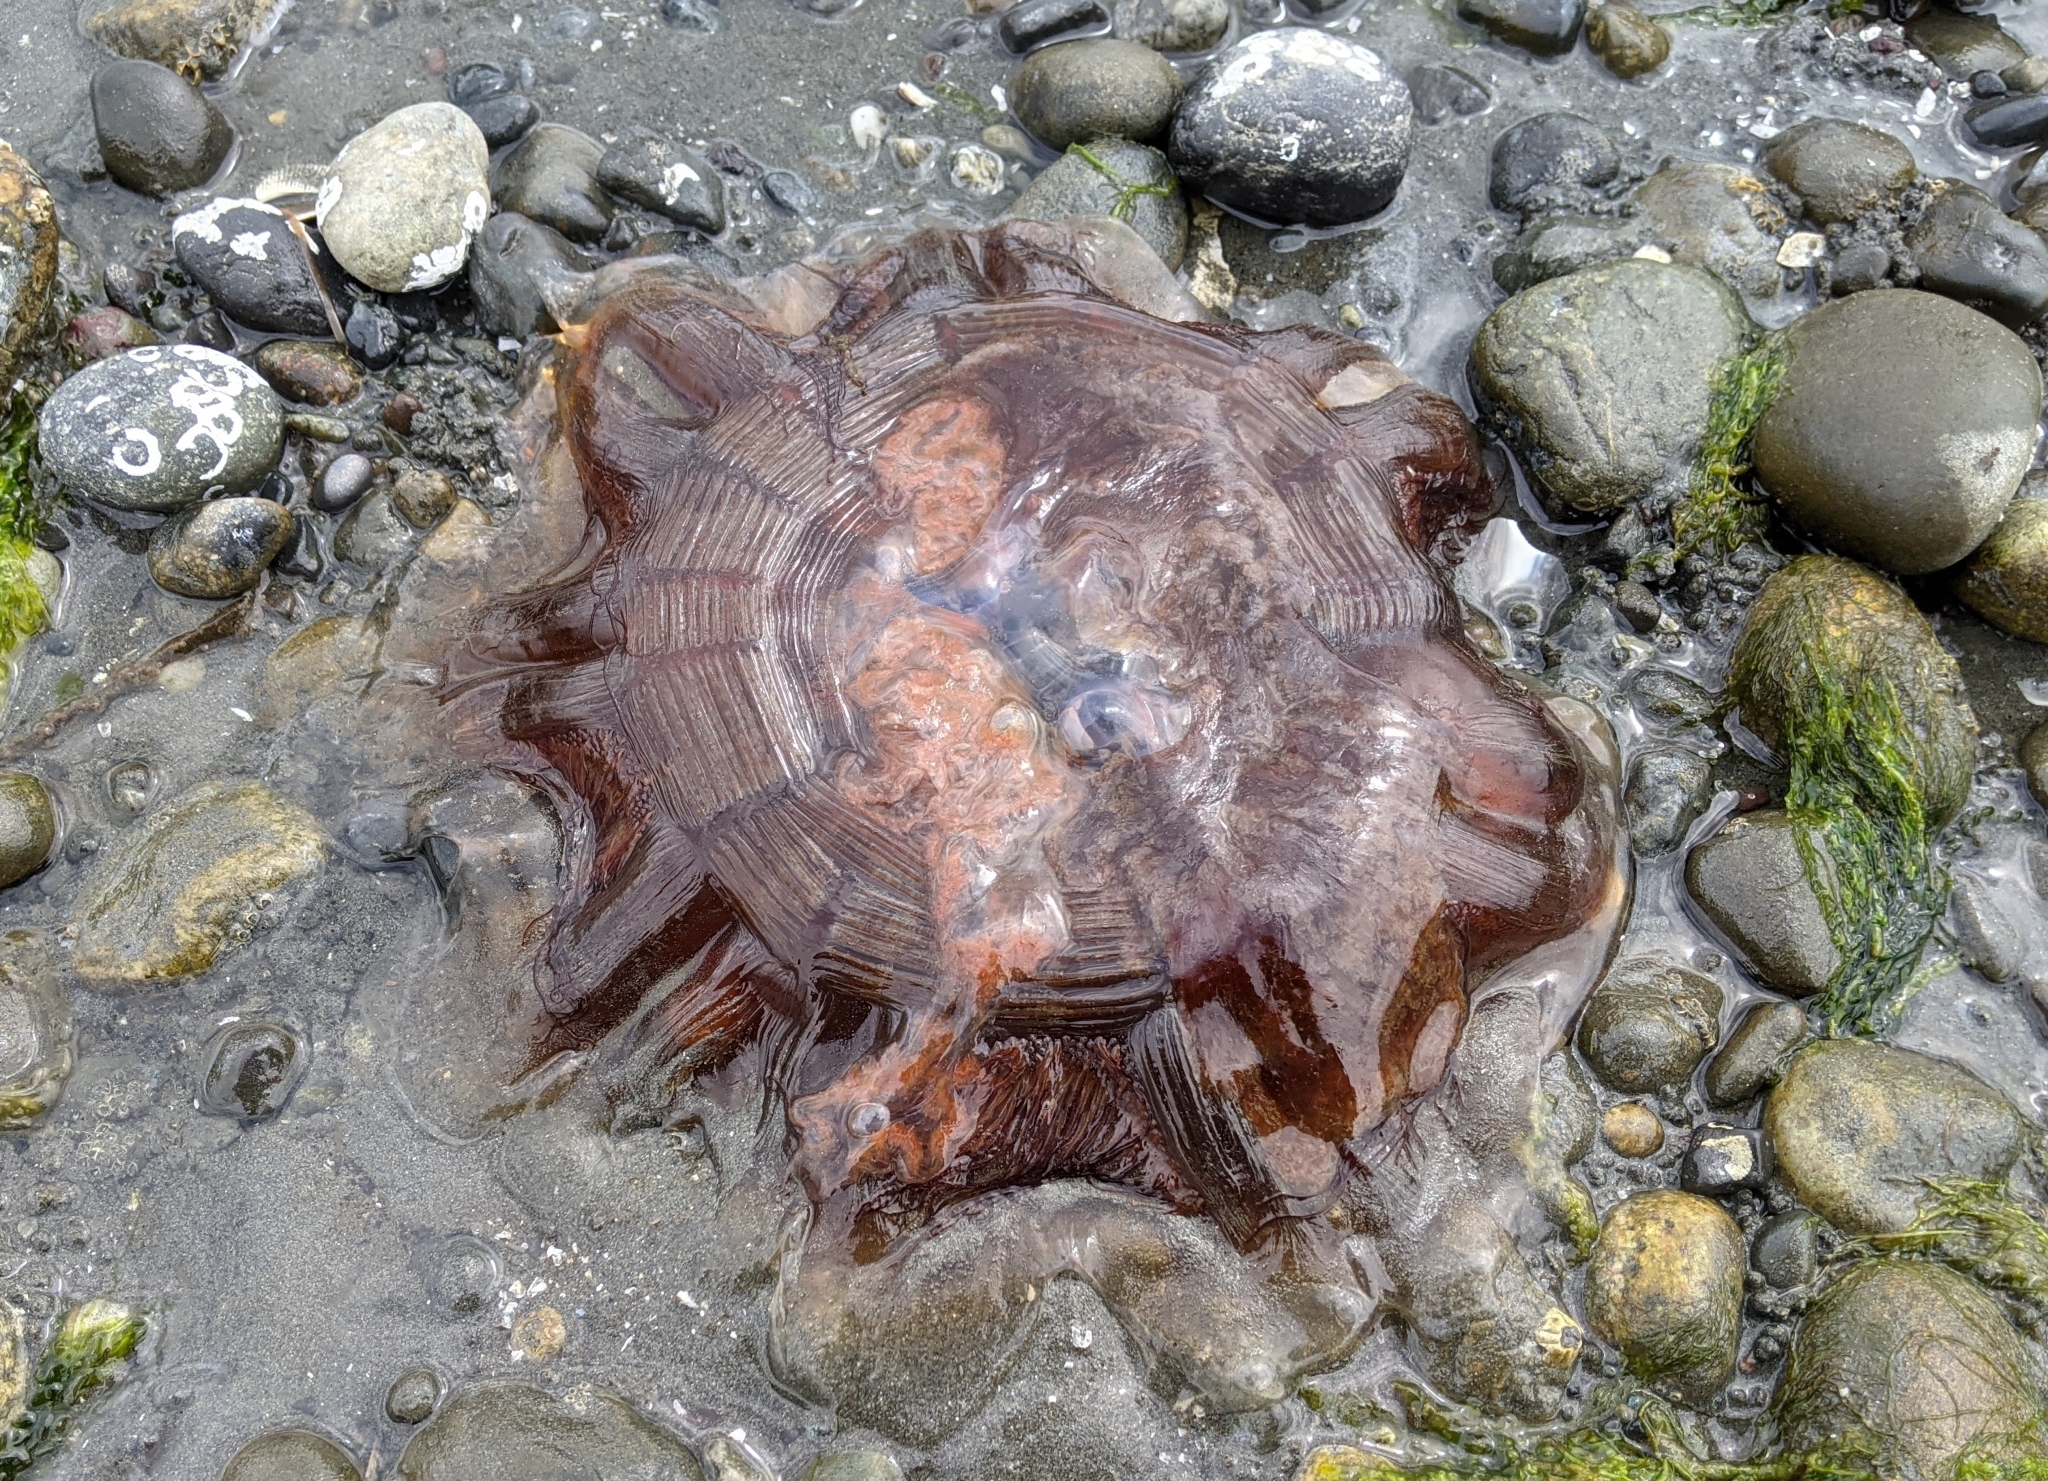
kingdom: Animalia
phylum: Cnidaria
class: Scyphozoa
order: Semaeostomeae
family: Cyaneidae
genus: Cyanea
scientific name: Cyanea ferruginea
